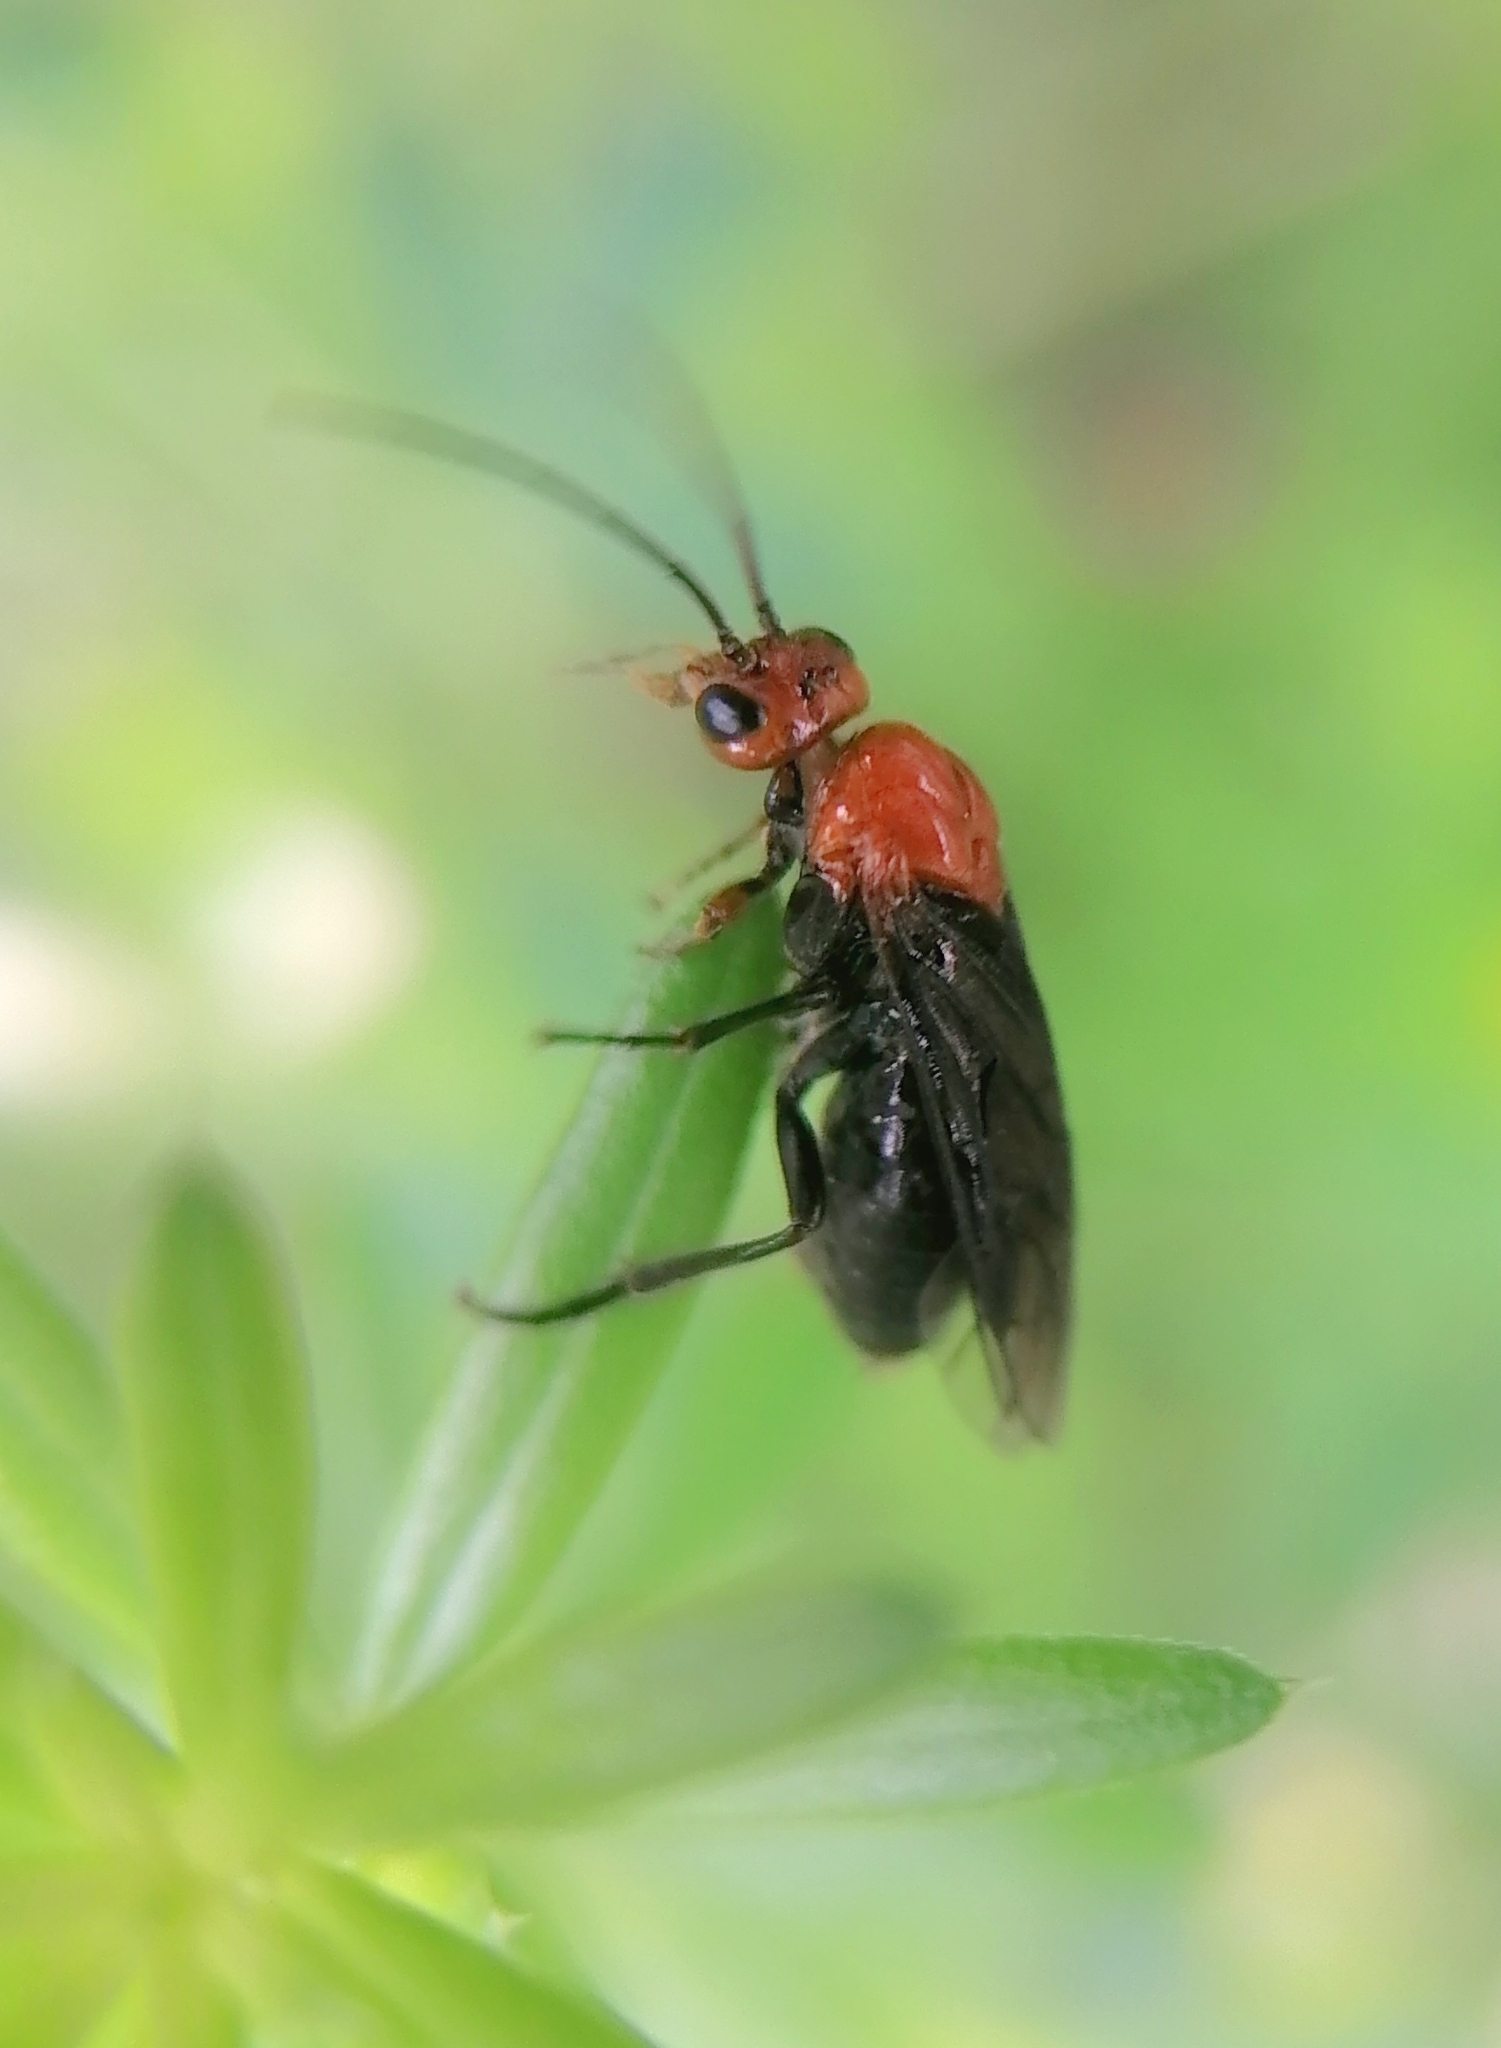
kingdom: Animalia
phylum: Arthropoda
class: Insecta
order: Hymenoptera
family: Tenthredinidae
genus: Hemichroa
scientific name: Hemichroa australis
